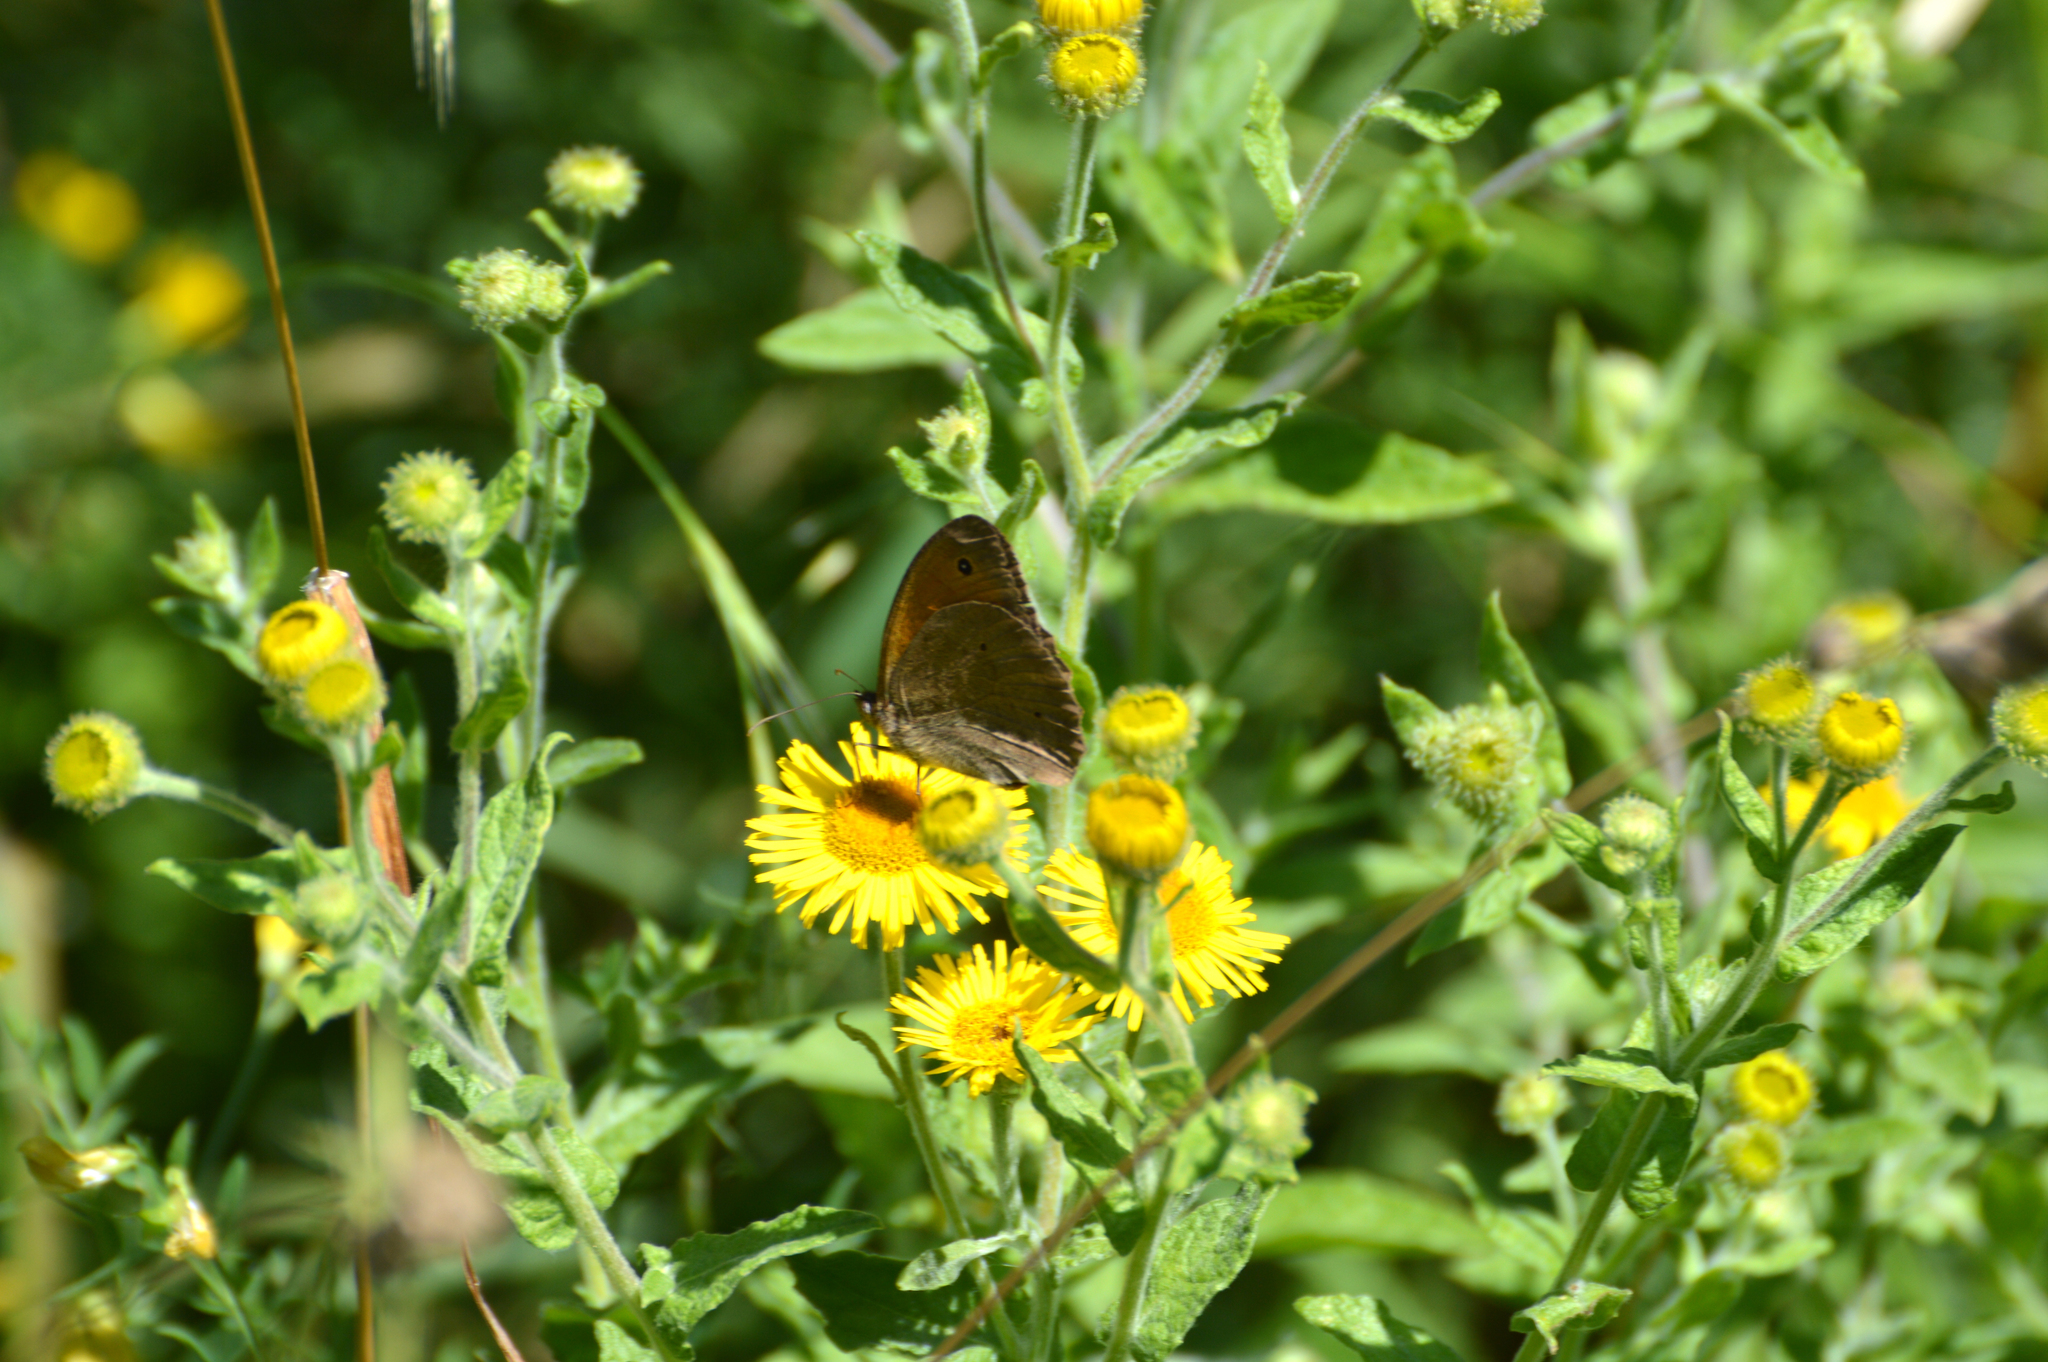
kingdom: Plantae
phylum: Tracheophyta
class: Magnoliopsida
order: Asterales
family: Asteraceae
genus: Pulicaria
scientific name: Pulicaria dysenterica
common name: Common fleabane
